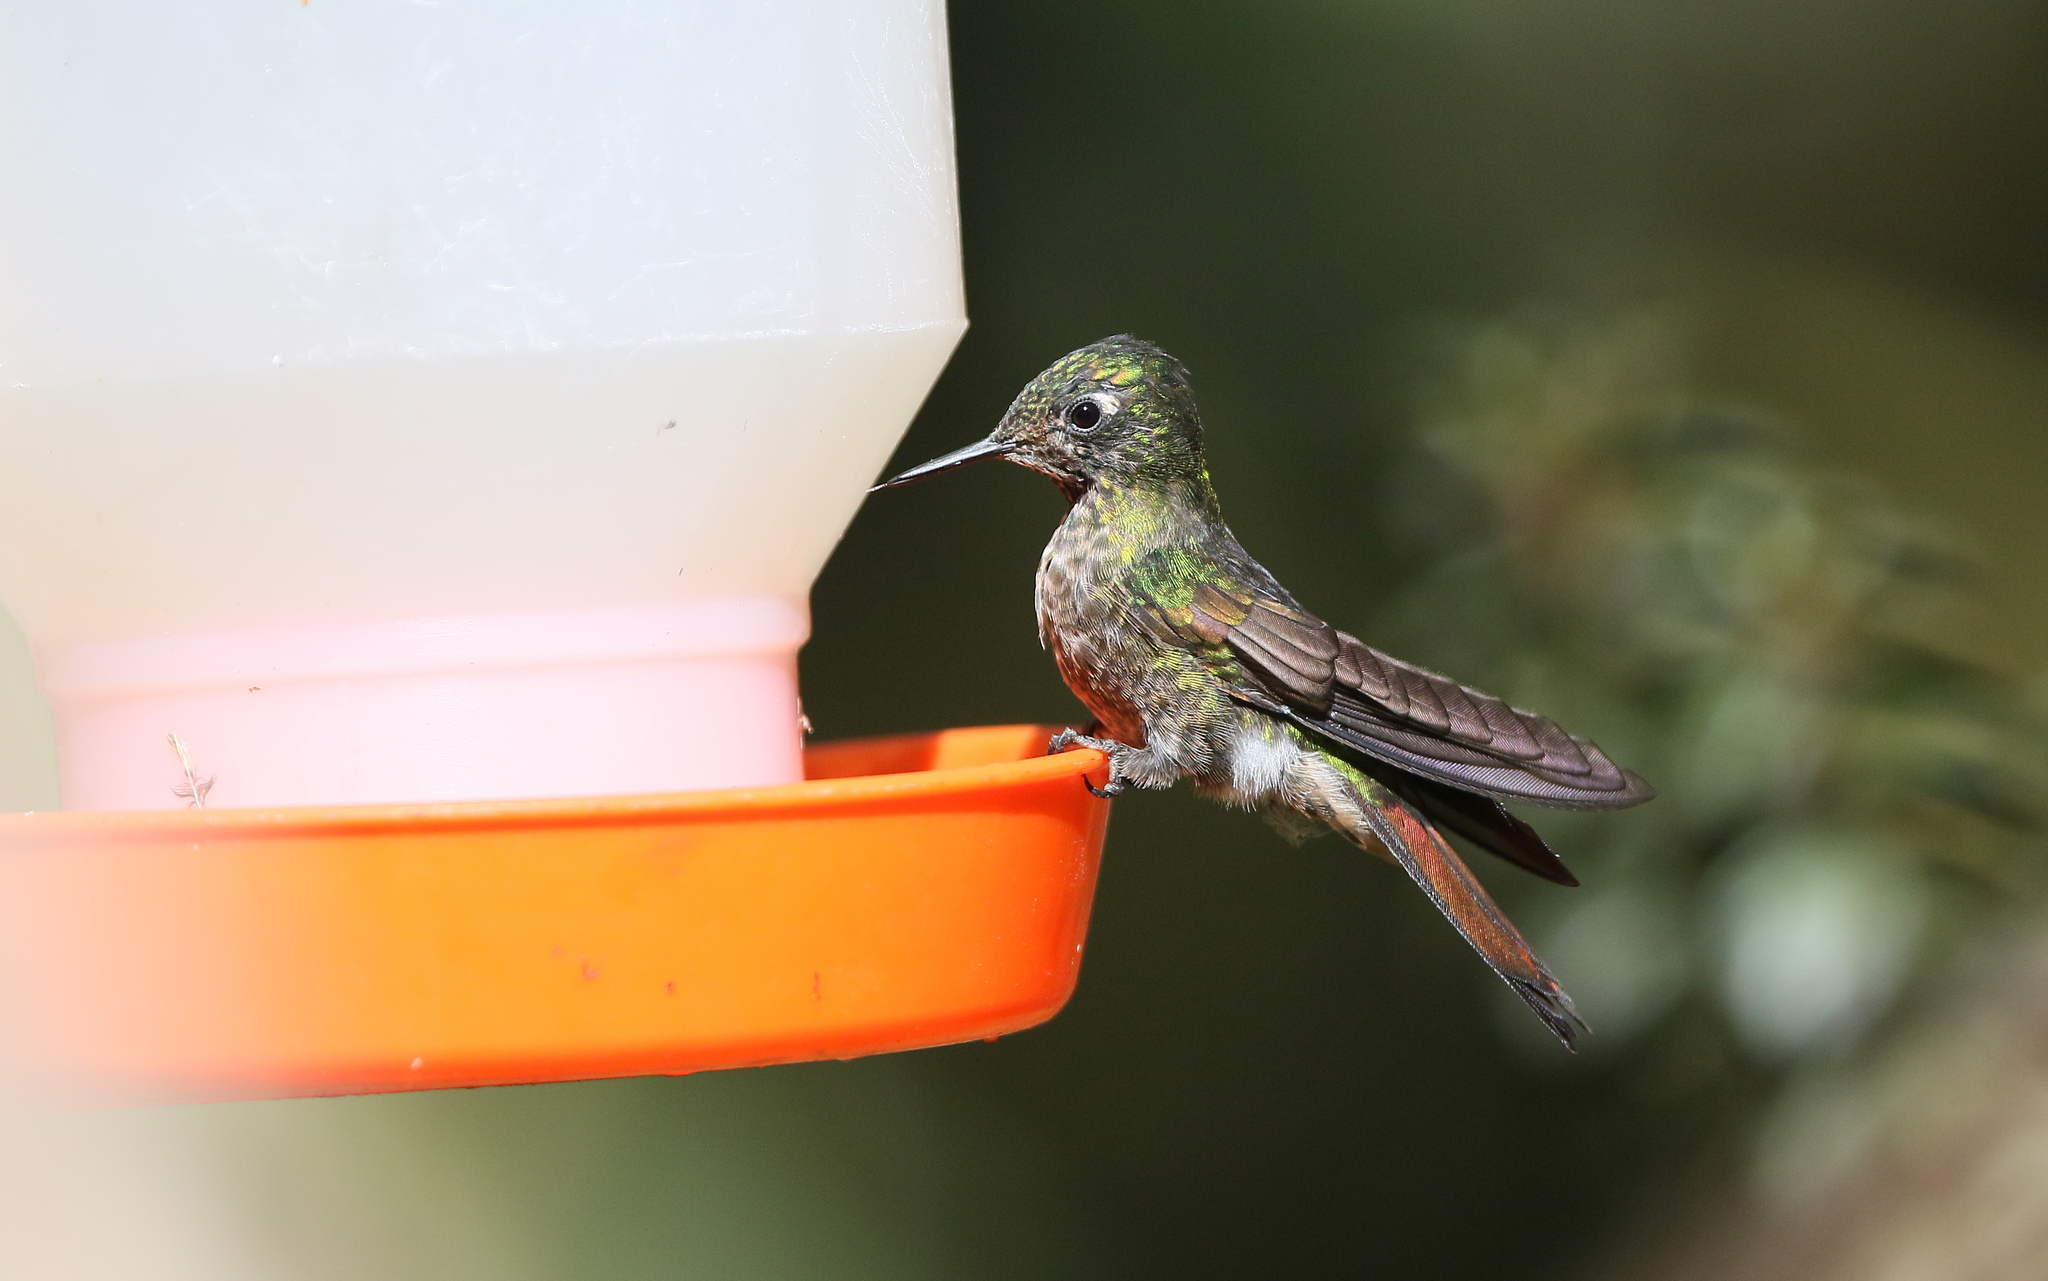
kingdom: Animalia
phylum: Chordata
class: Aves
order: Apodiformes
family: Trochilidae
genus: Metallura
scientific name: Metallura tyrianthina
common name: Tyrian metaltail
